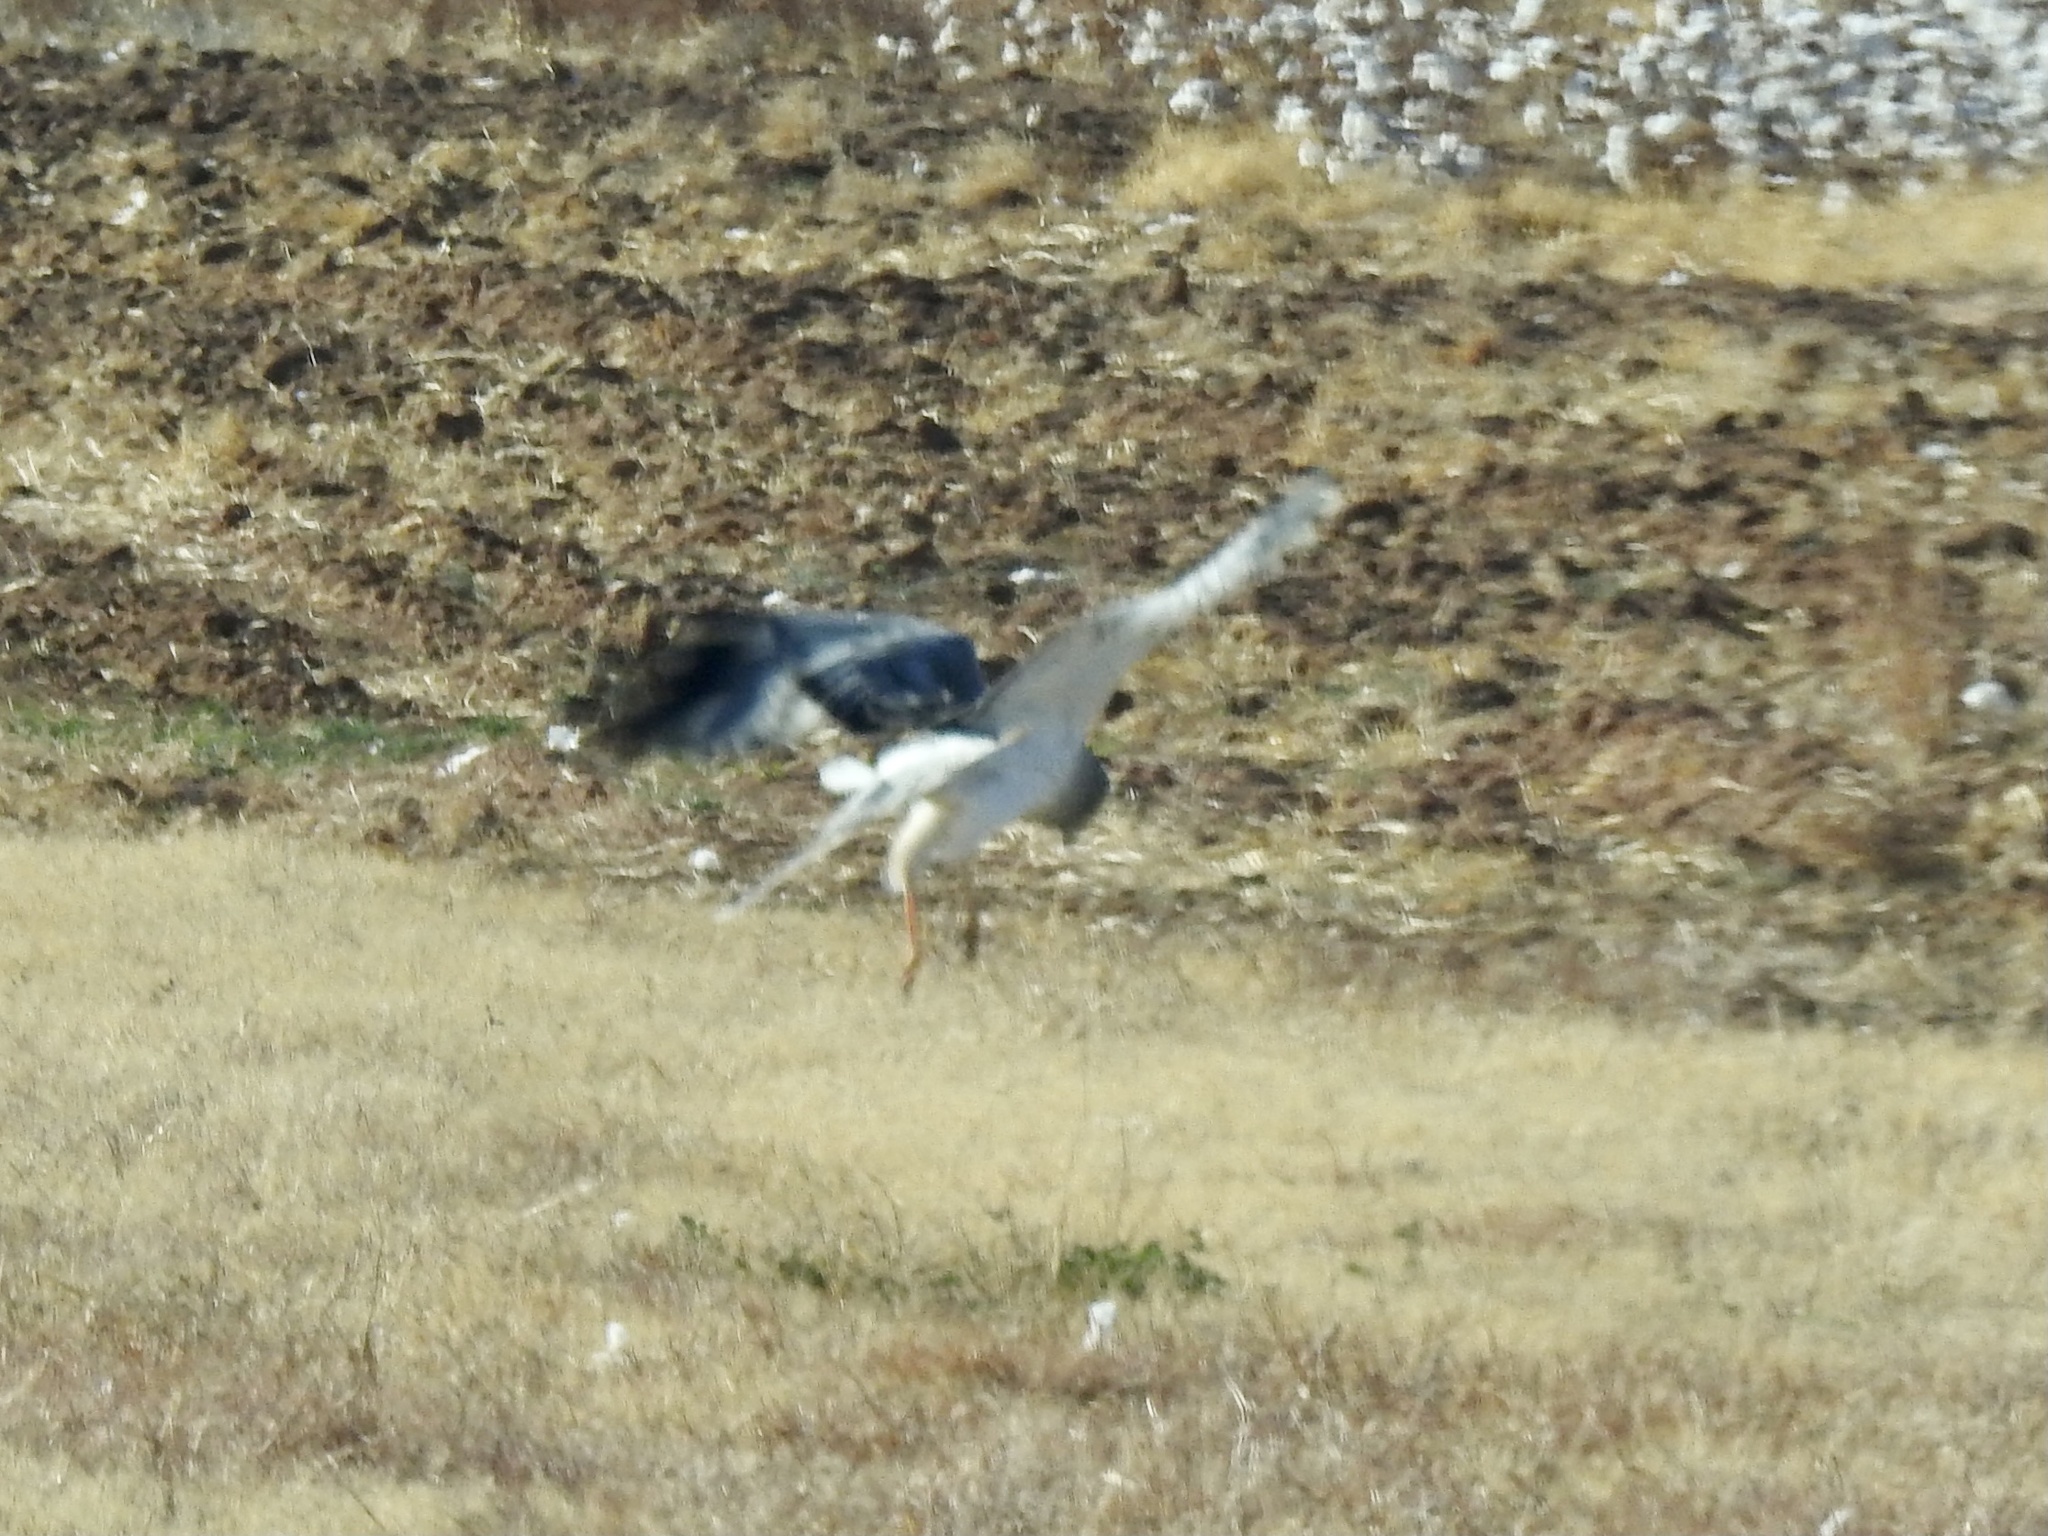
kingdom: Animalia
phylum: Chordata
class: Aves
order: Accipitriformes
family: Accipitridae
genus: Circus
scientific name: Circus cyaneus
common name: Hen harrier
